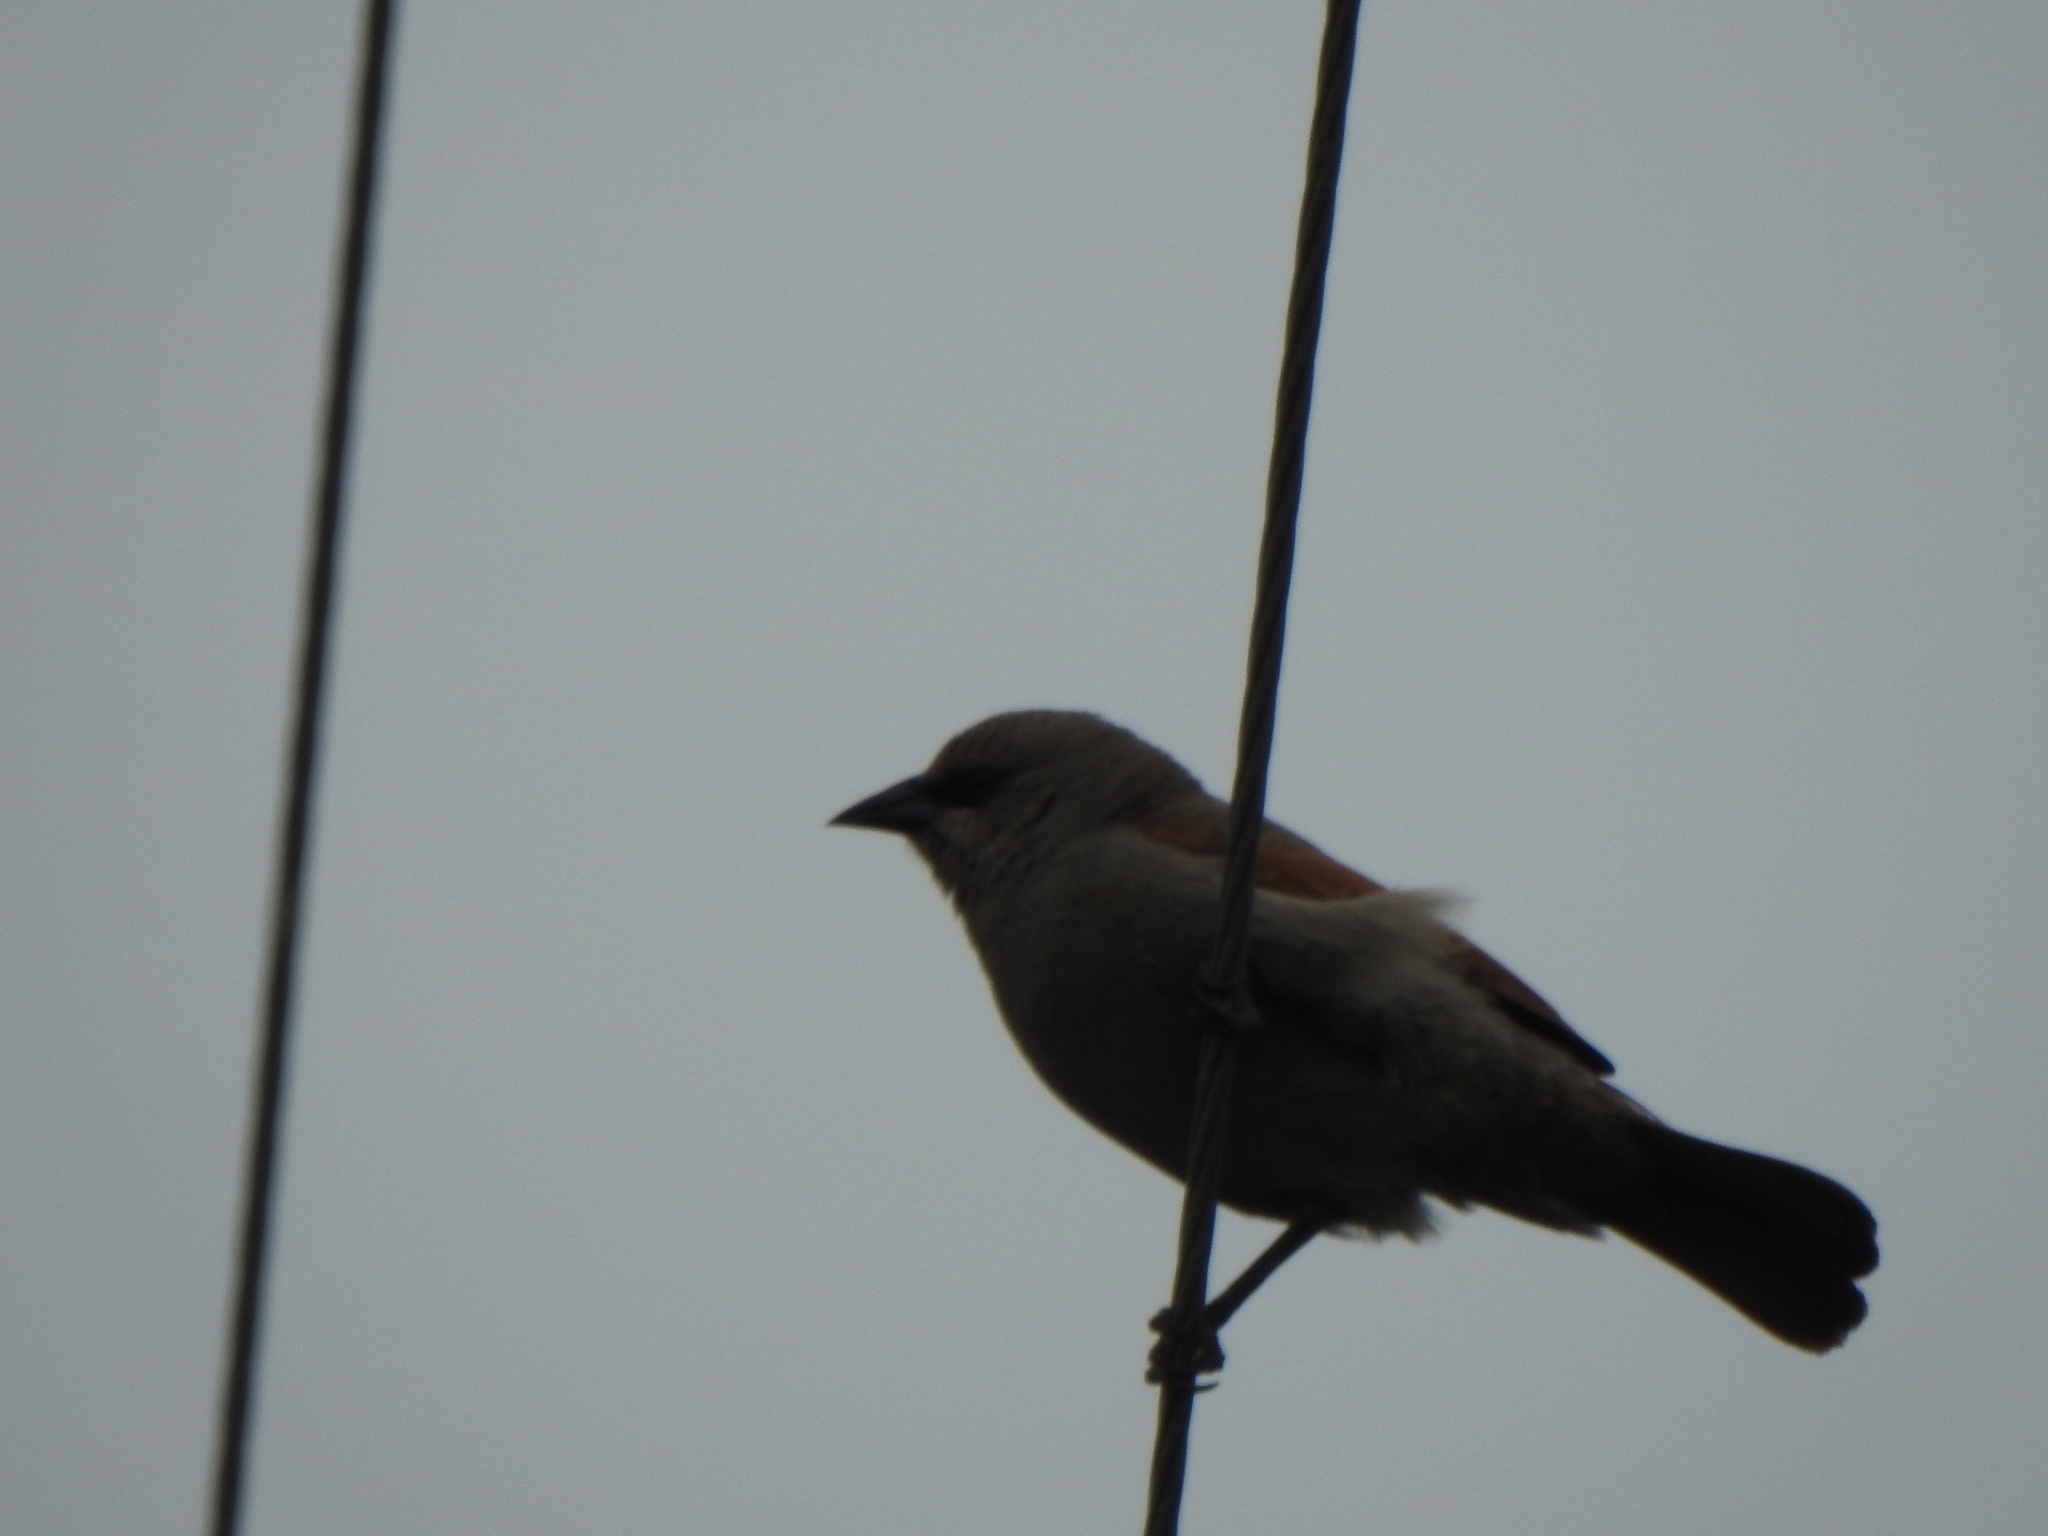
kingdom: Animalia
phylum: Chordata
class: Aves
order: Passeriformes
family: Icteridae
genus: Agelaioides
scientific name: Agelaioides badius
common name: Baywing
